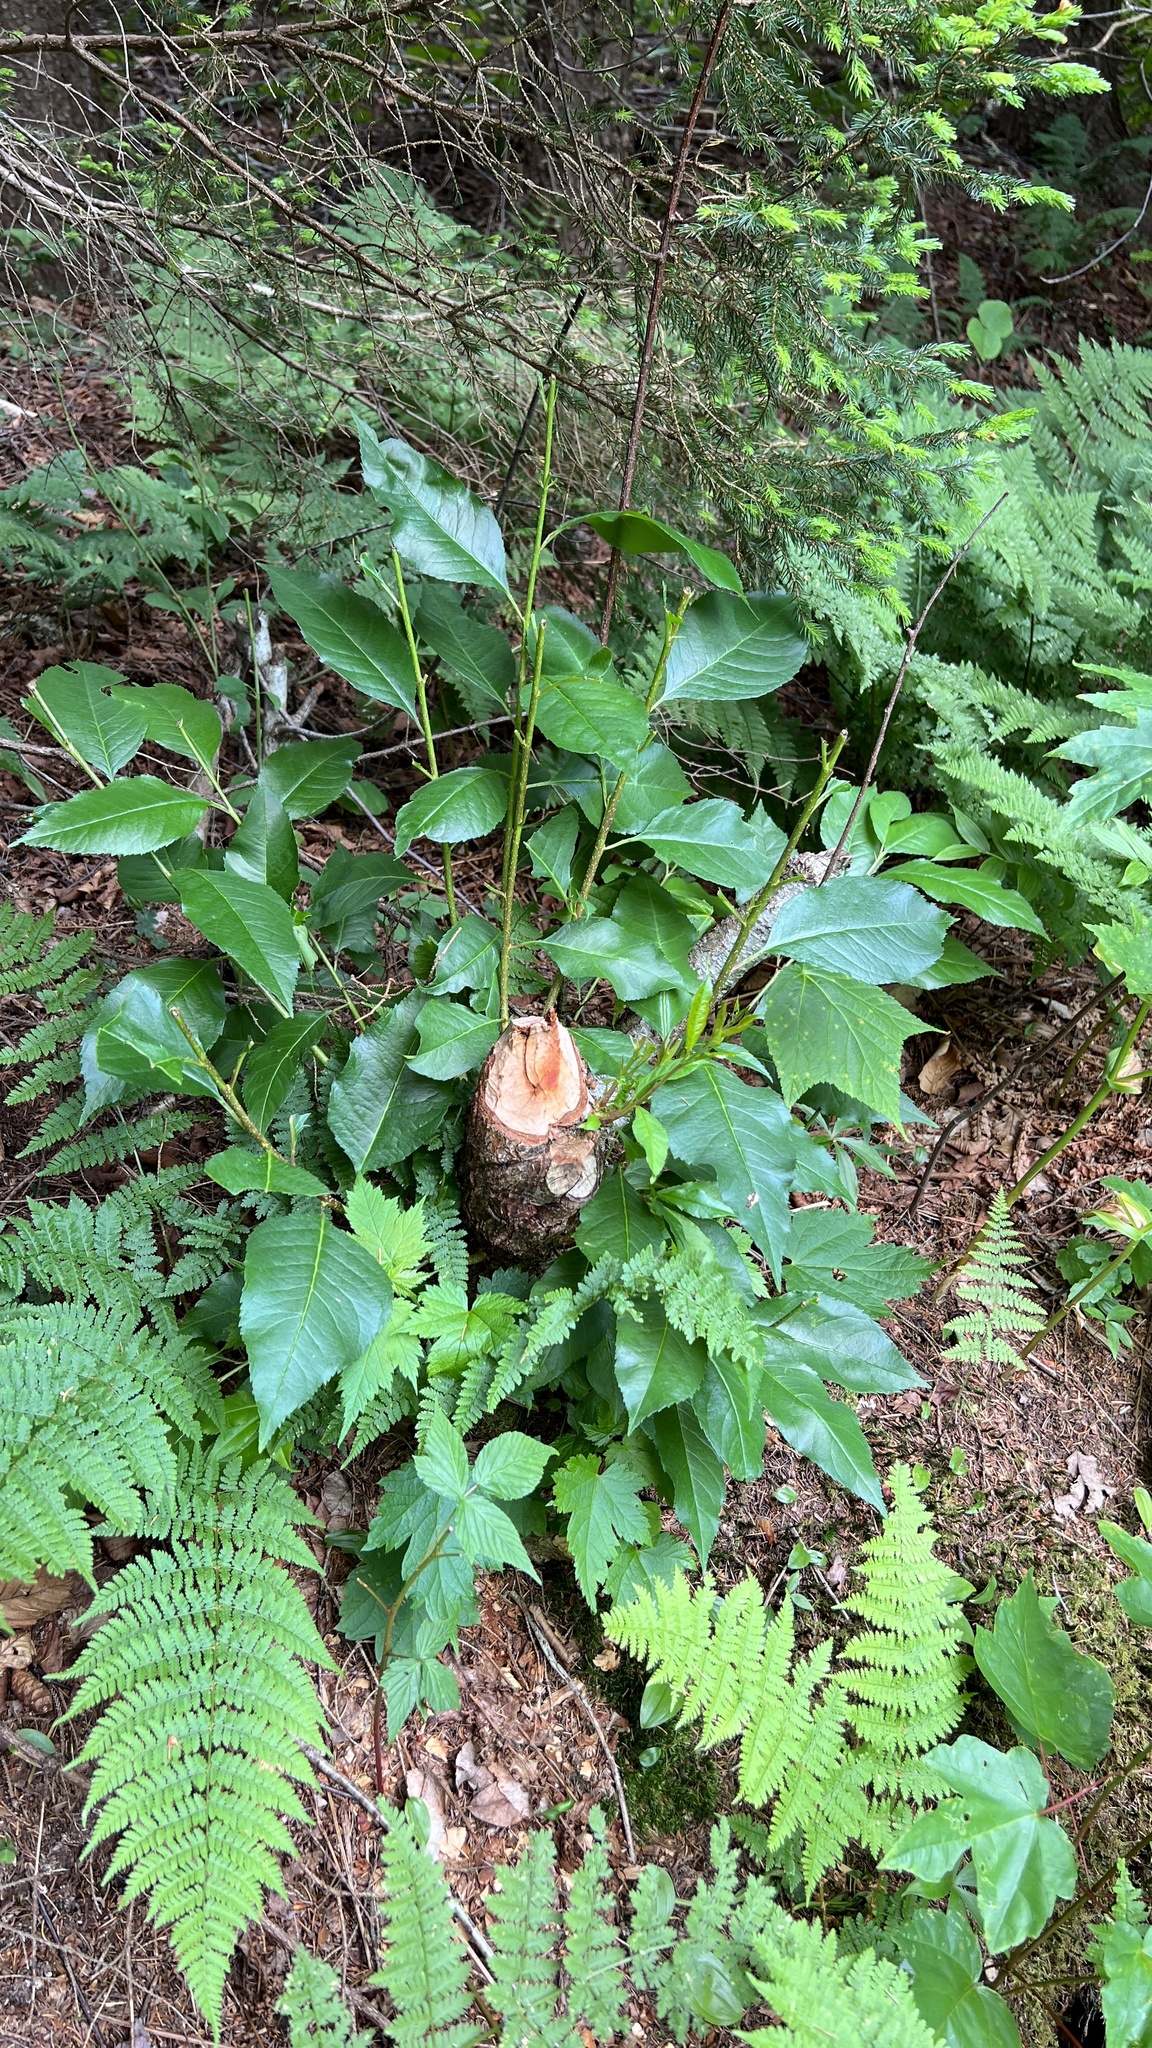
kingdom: Animalia
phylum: Chordata
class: Mammalia
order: Rodentia
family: Castoridae
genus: Castor
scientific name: Castor canadensis
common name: American beaver
